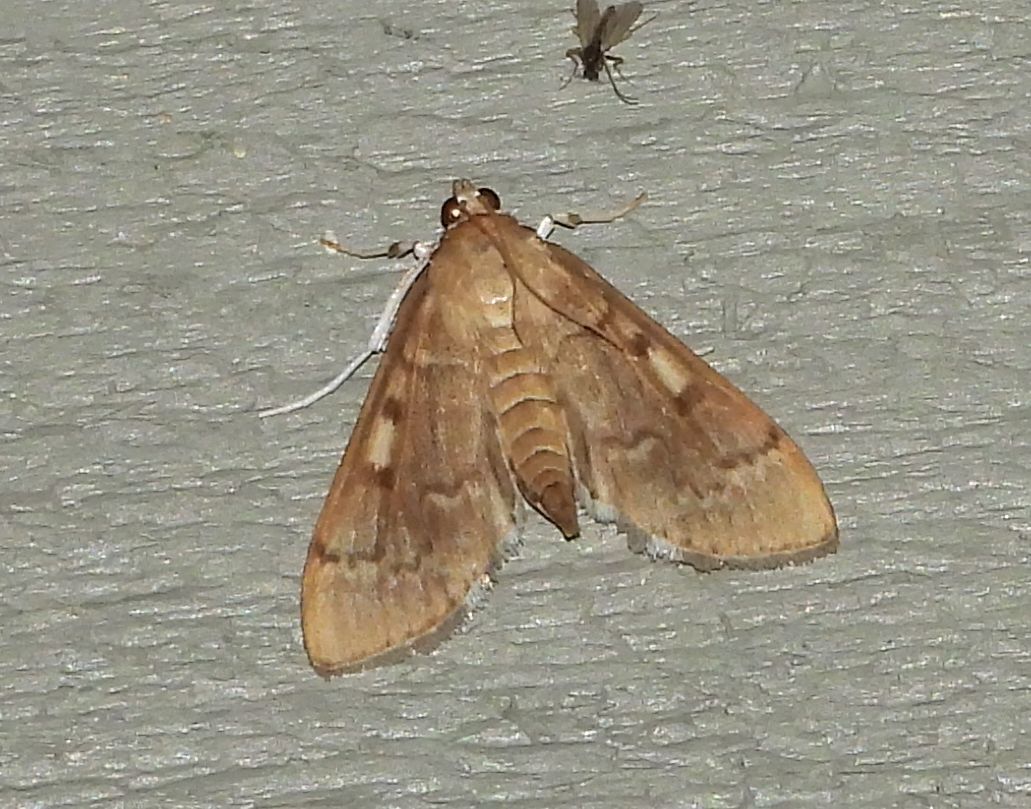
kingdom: Animalia
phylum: Arthropoda
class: Insecta
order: Lepidoptera
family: Crambidae
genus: Herpetogramma
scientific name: Herpetogramma aeglealis
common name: Serpentine webworm moth
